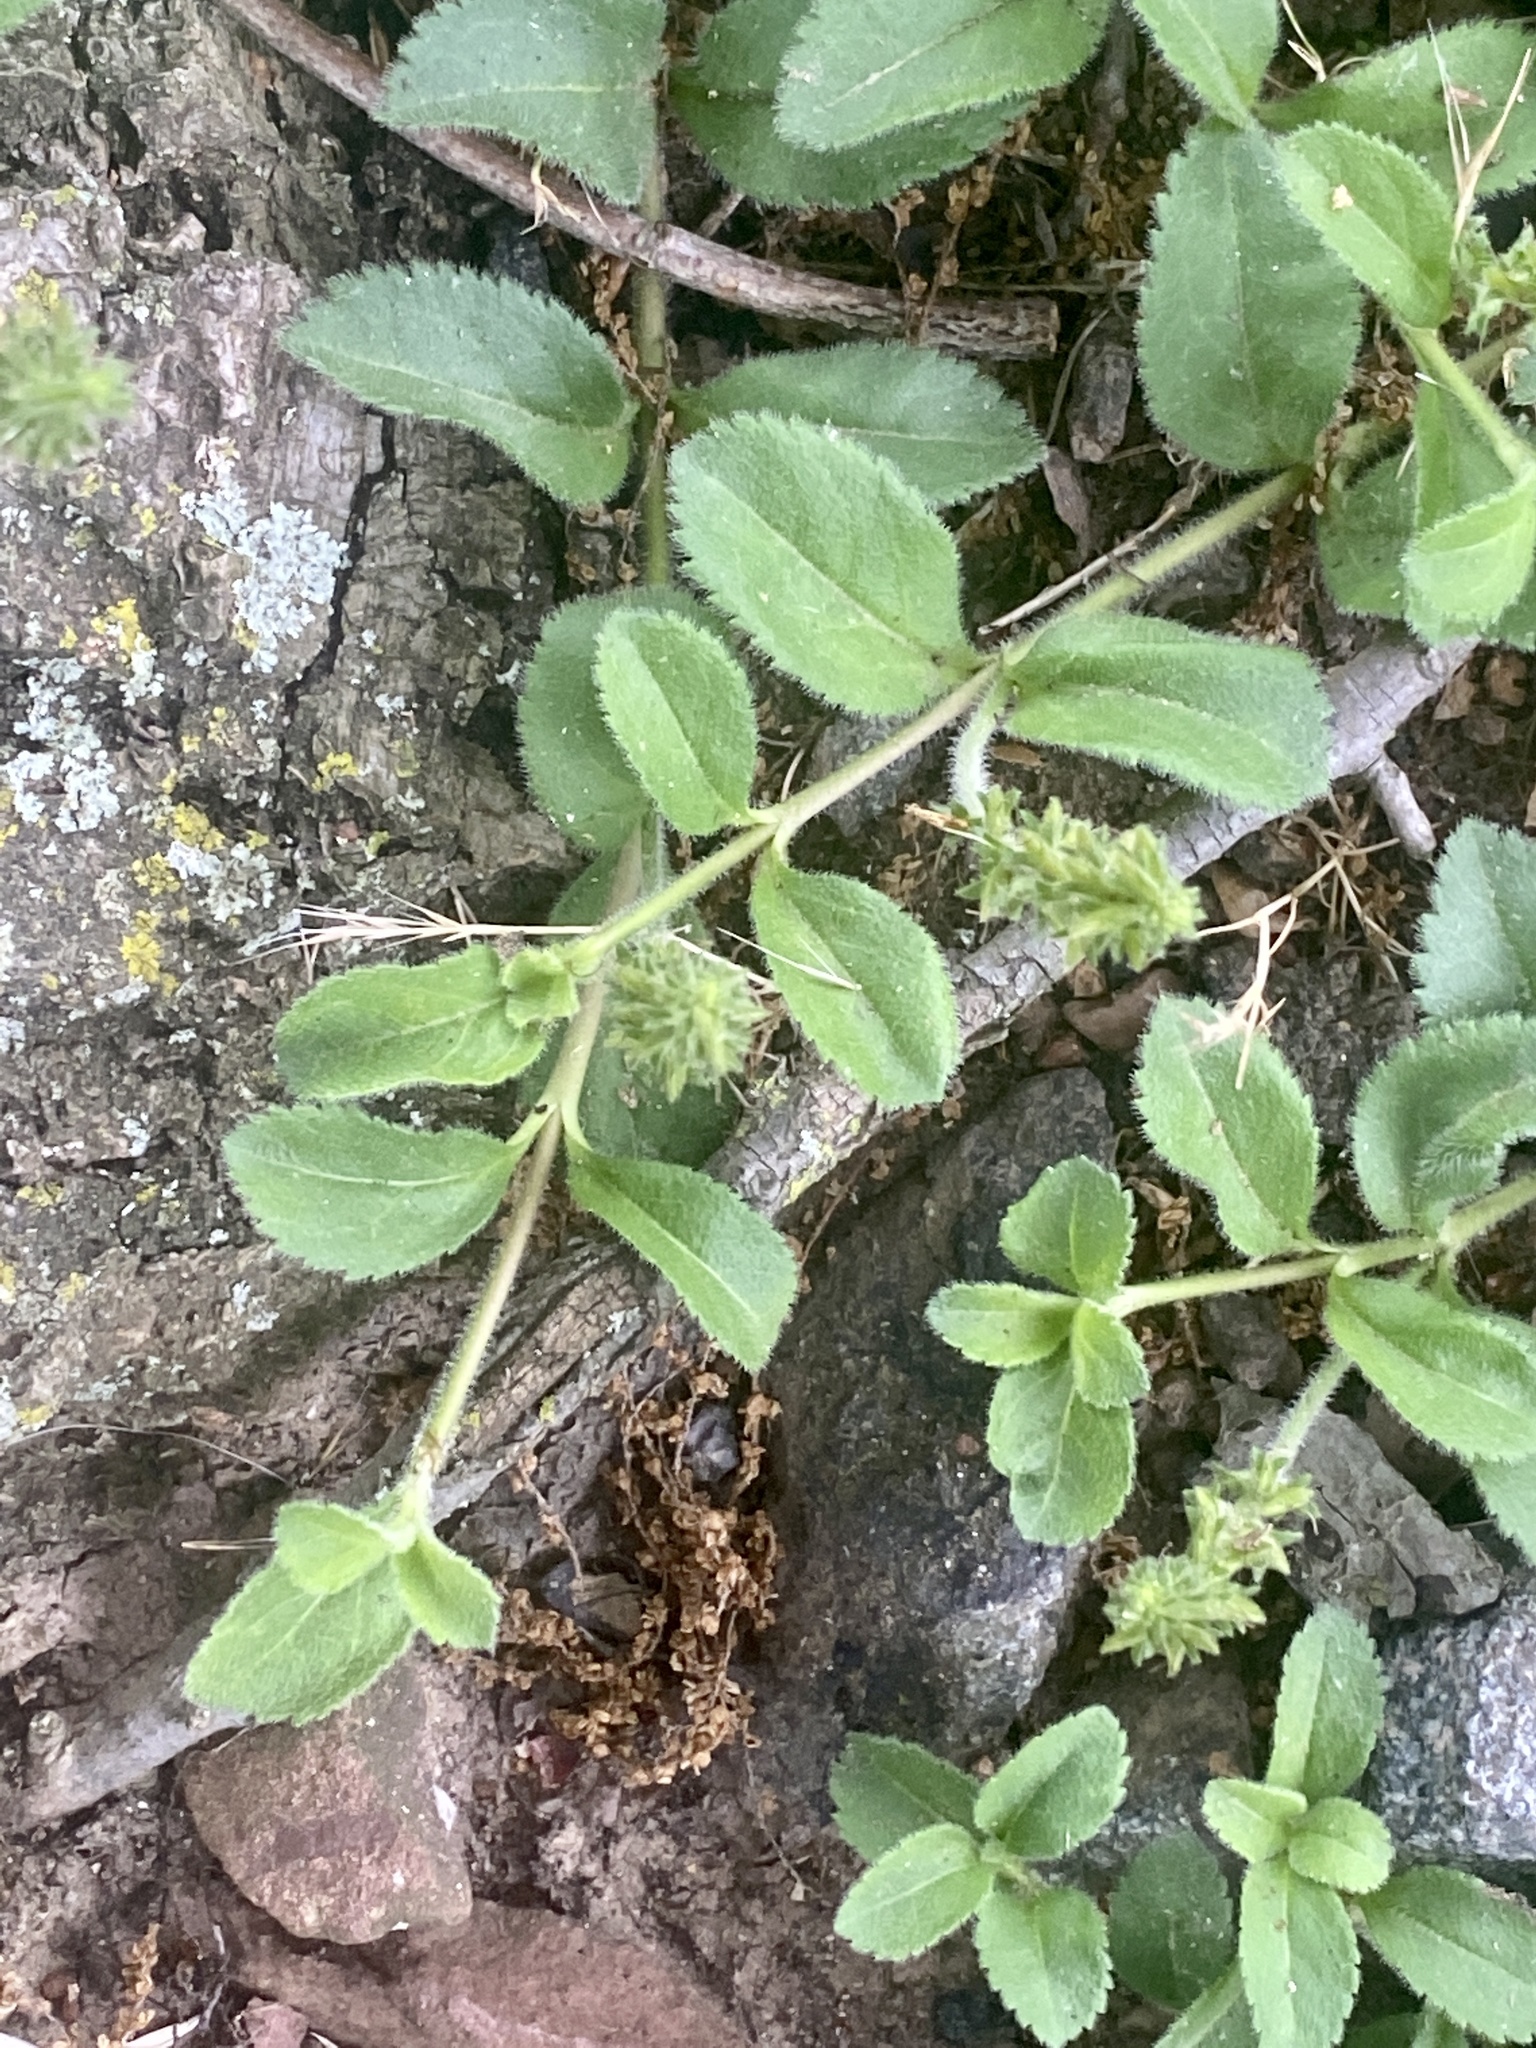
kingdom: Plantae
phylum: Tracheophyta
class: Magnoliopsida
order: Lamiales
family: Plantaginaceae
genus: Veronica
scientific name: Veronica officinalis
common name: Common speedwell
